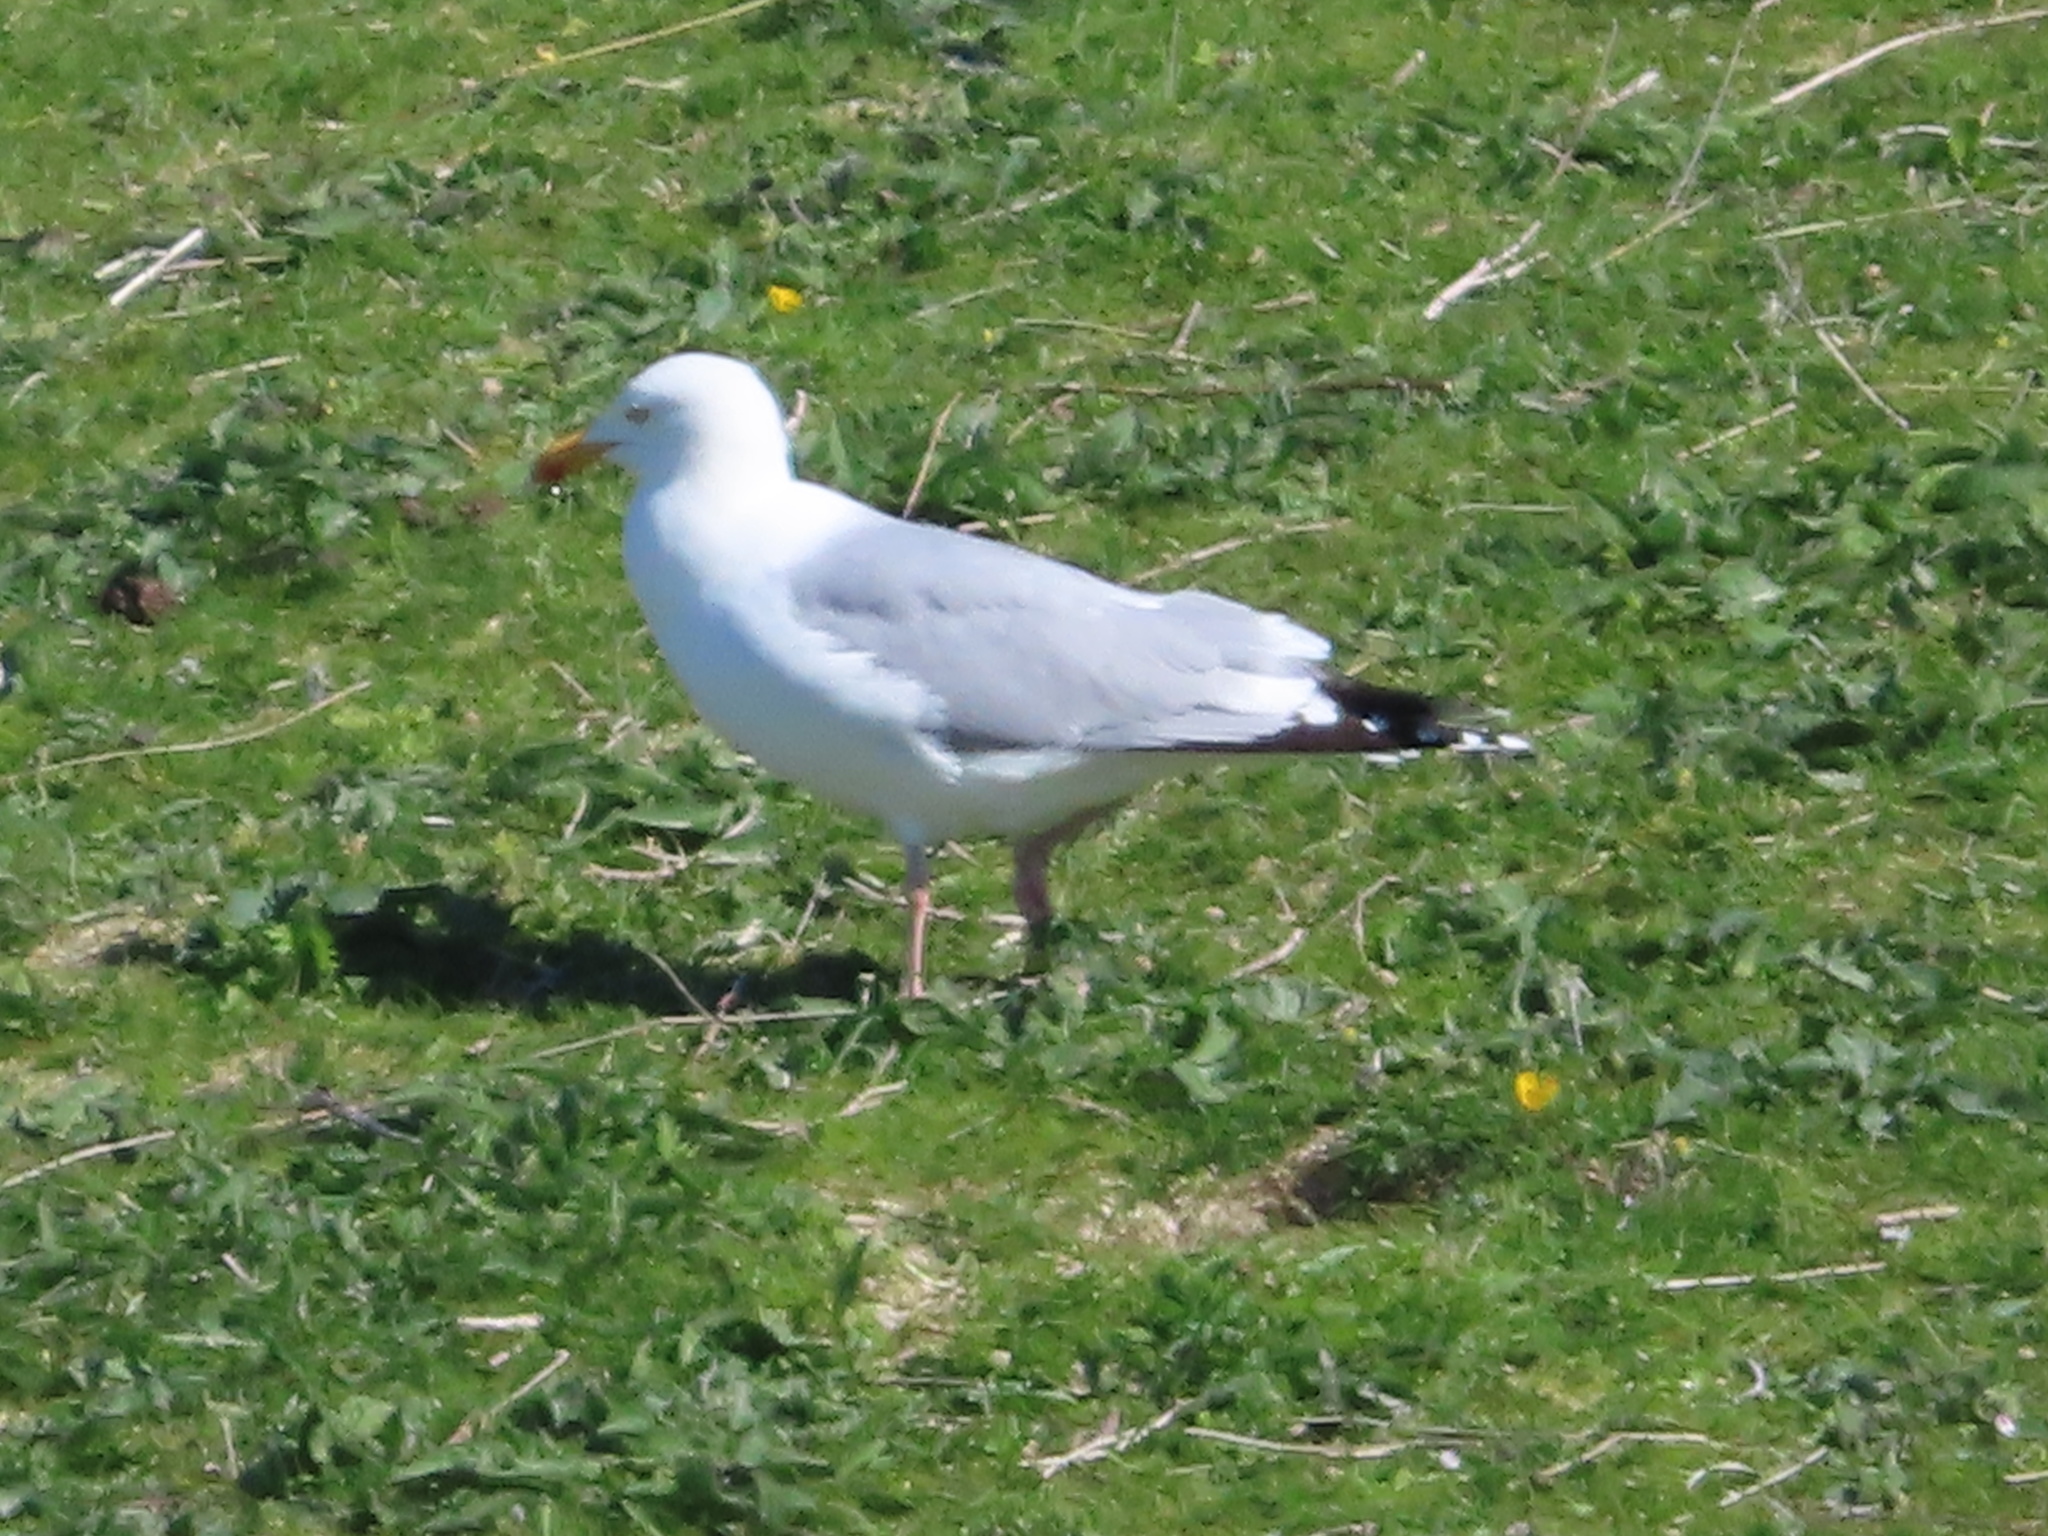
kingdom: Animalia
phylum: Chordata
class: Aves
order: Charadriiformes
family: Laridae
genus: Larus
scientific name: Larus argentatus
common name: Herring gull
